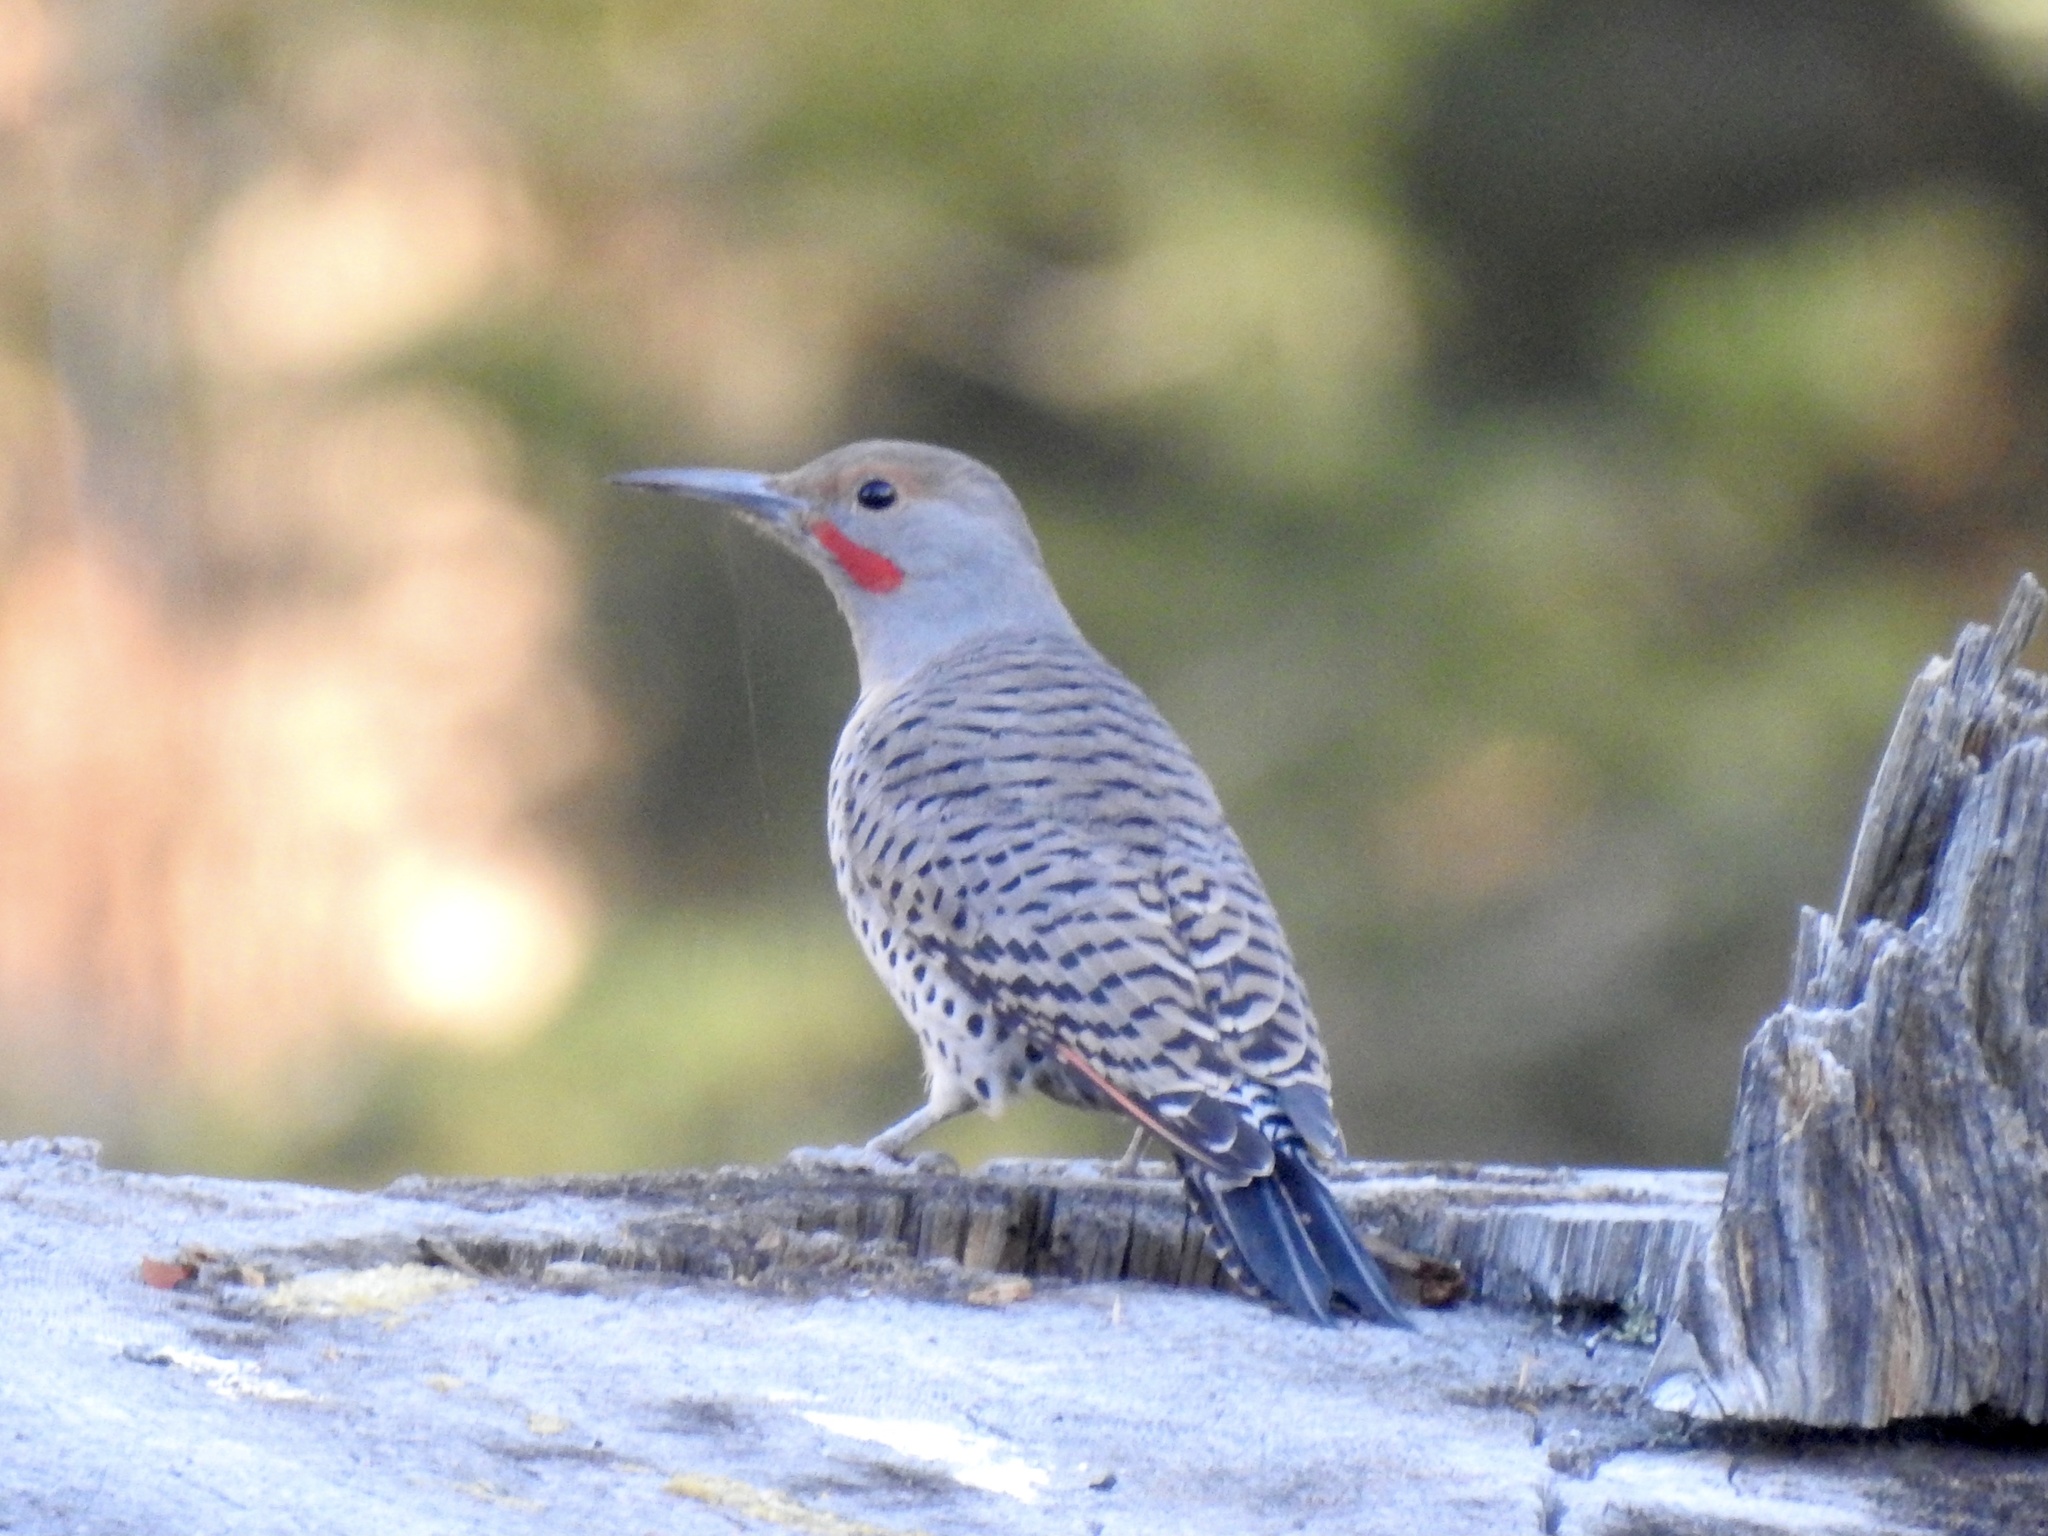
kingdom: Animalia
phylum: Chordata
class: Aves
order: Piciformes
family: Picidae
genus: Colaptes
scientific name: Colaptes auratus
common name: Northern flicker
